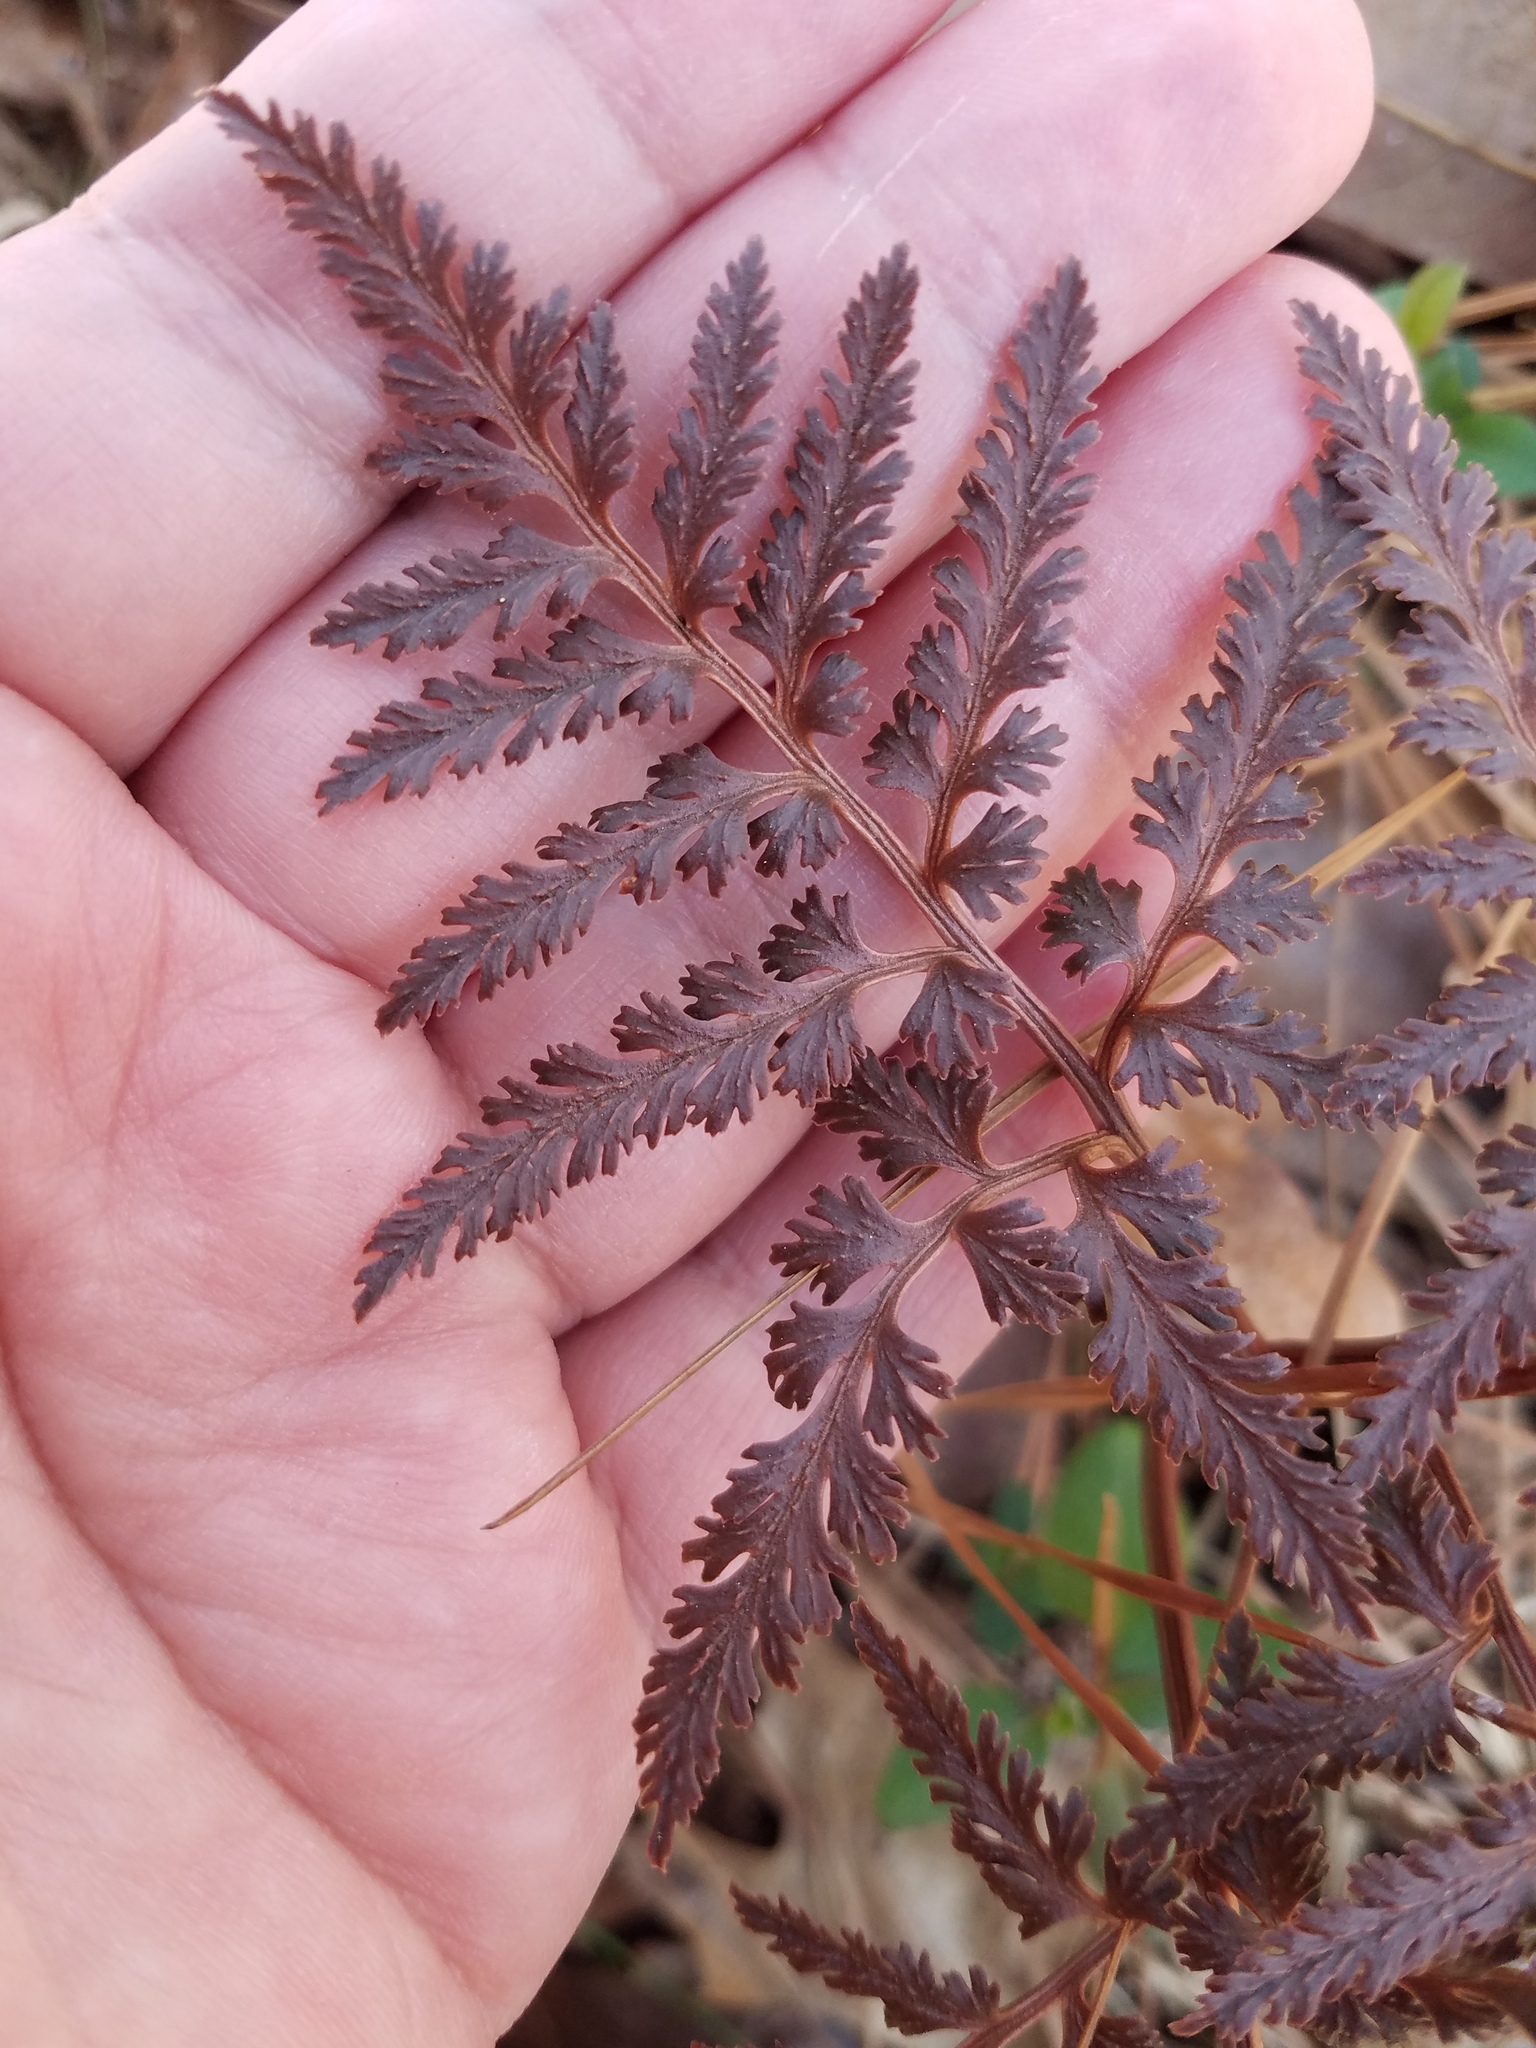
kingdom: Plantae
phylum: Tracheophyta
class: Polypodiopsida
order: Ophioglossales
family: Ophioglossaceae
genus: Sceptridium
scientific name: Sceptridium dissectum
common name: Cut-leaved grapefern
